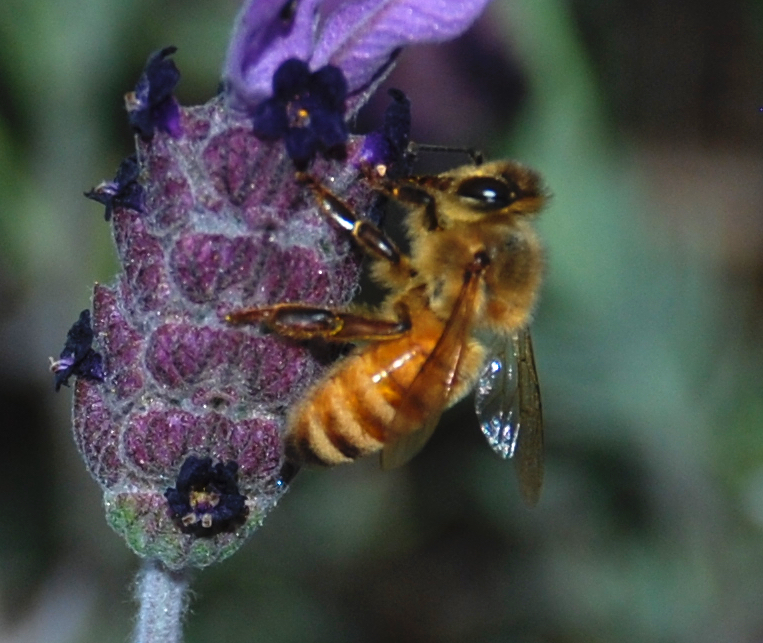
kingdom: Animalia
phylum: Arthropoda
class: Insecta
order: Hymenoptera
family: Apidae
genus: Apis
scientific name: Apis mellifera
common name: Honey bee
